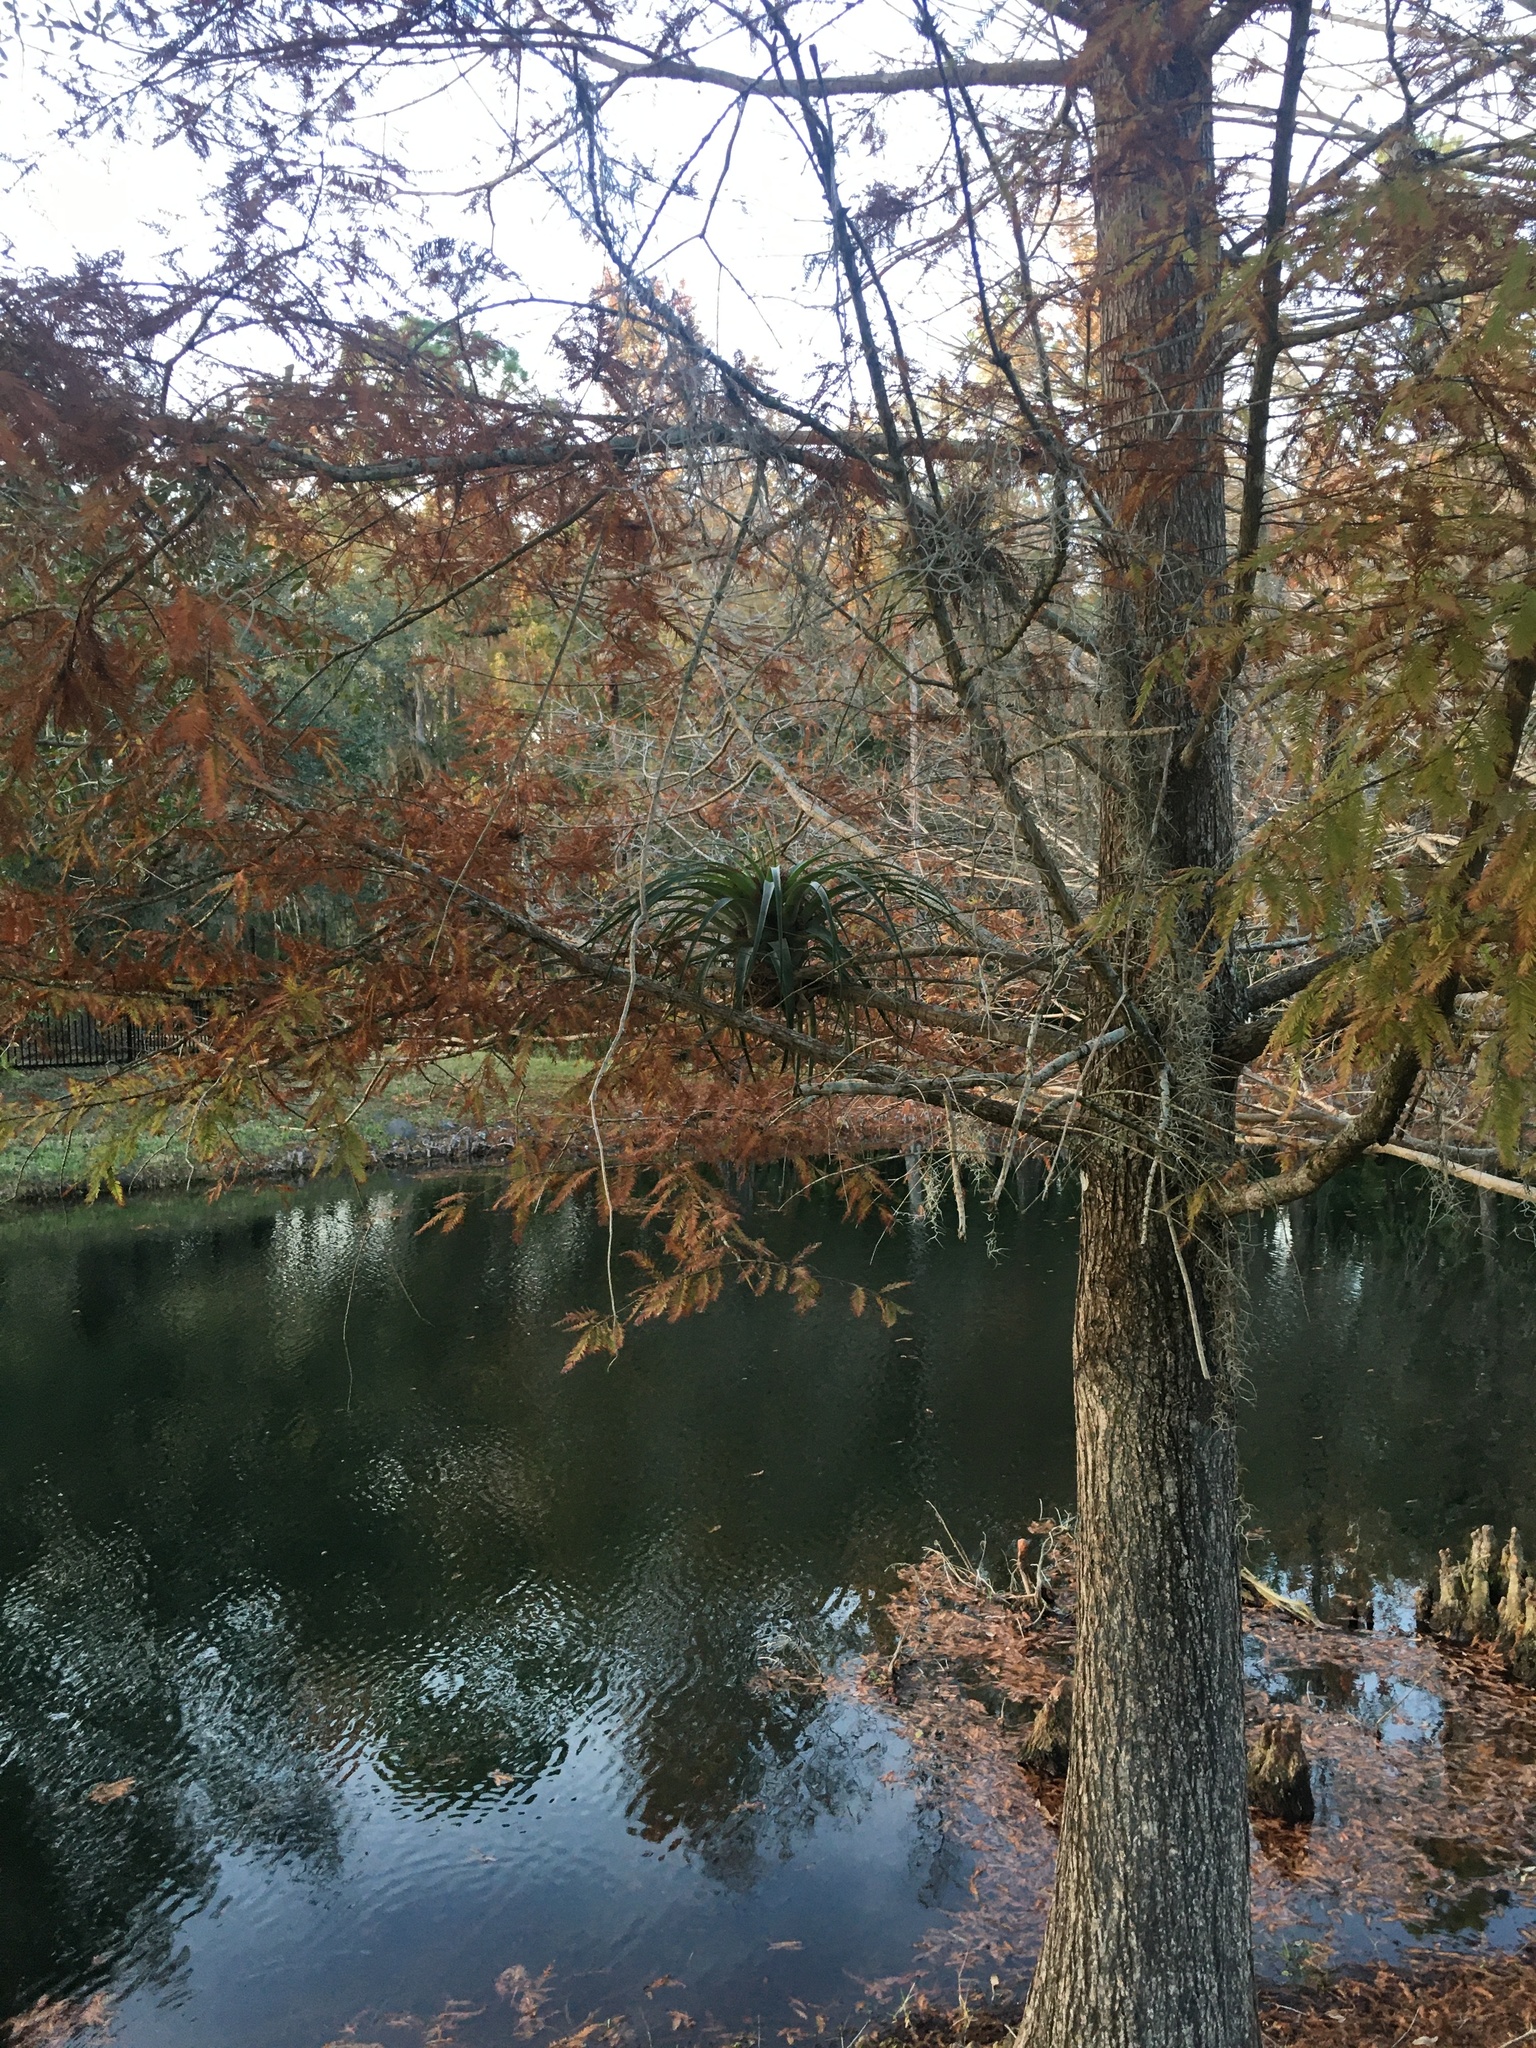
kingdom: Plantae
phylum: Tracheophyta
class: Liliopsida
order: Poales
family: Bromeliaceae
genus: Tillandsia
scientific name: Tillandsia utriculata
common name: Wild pine
